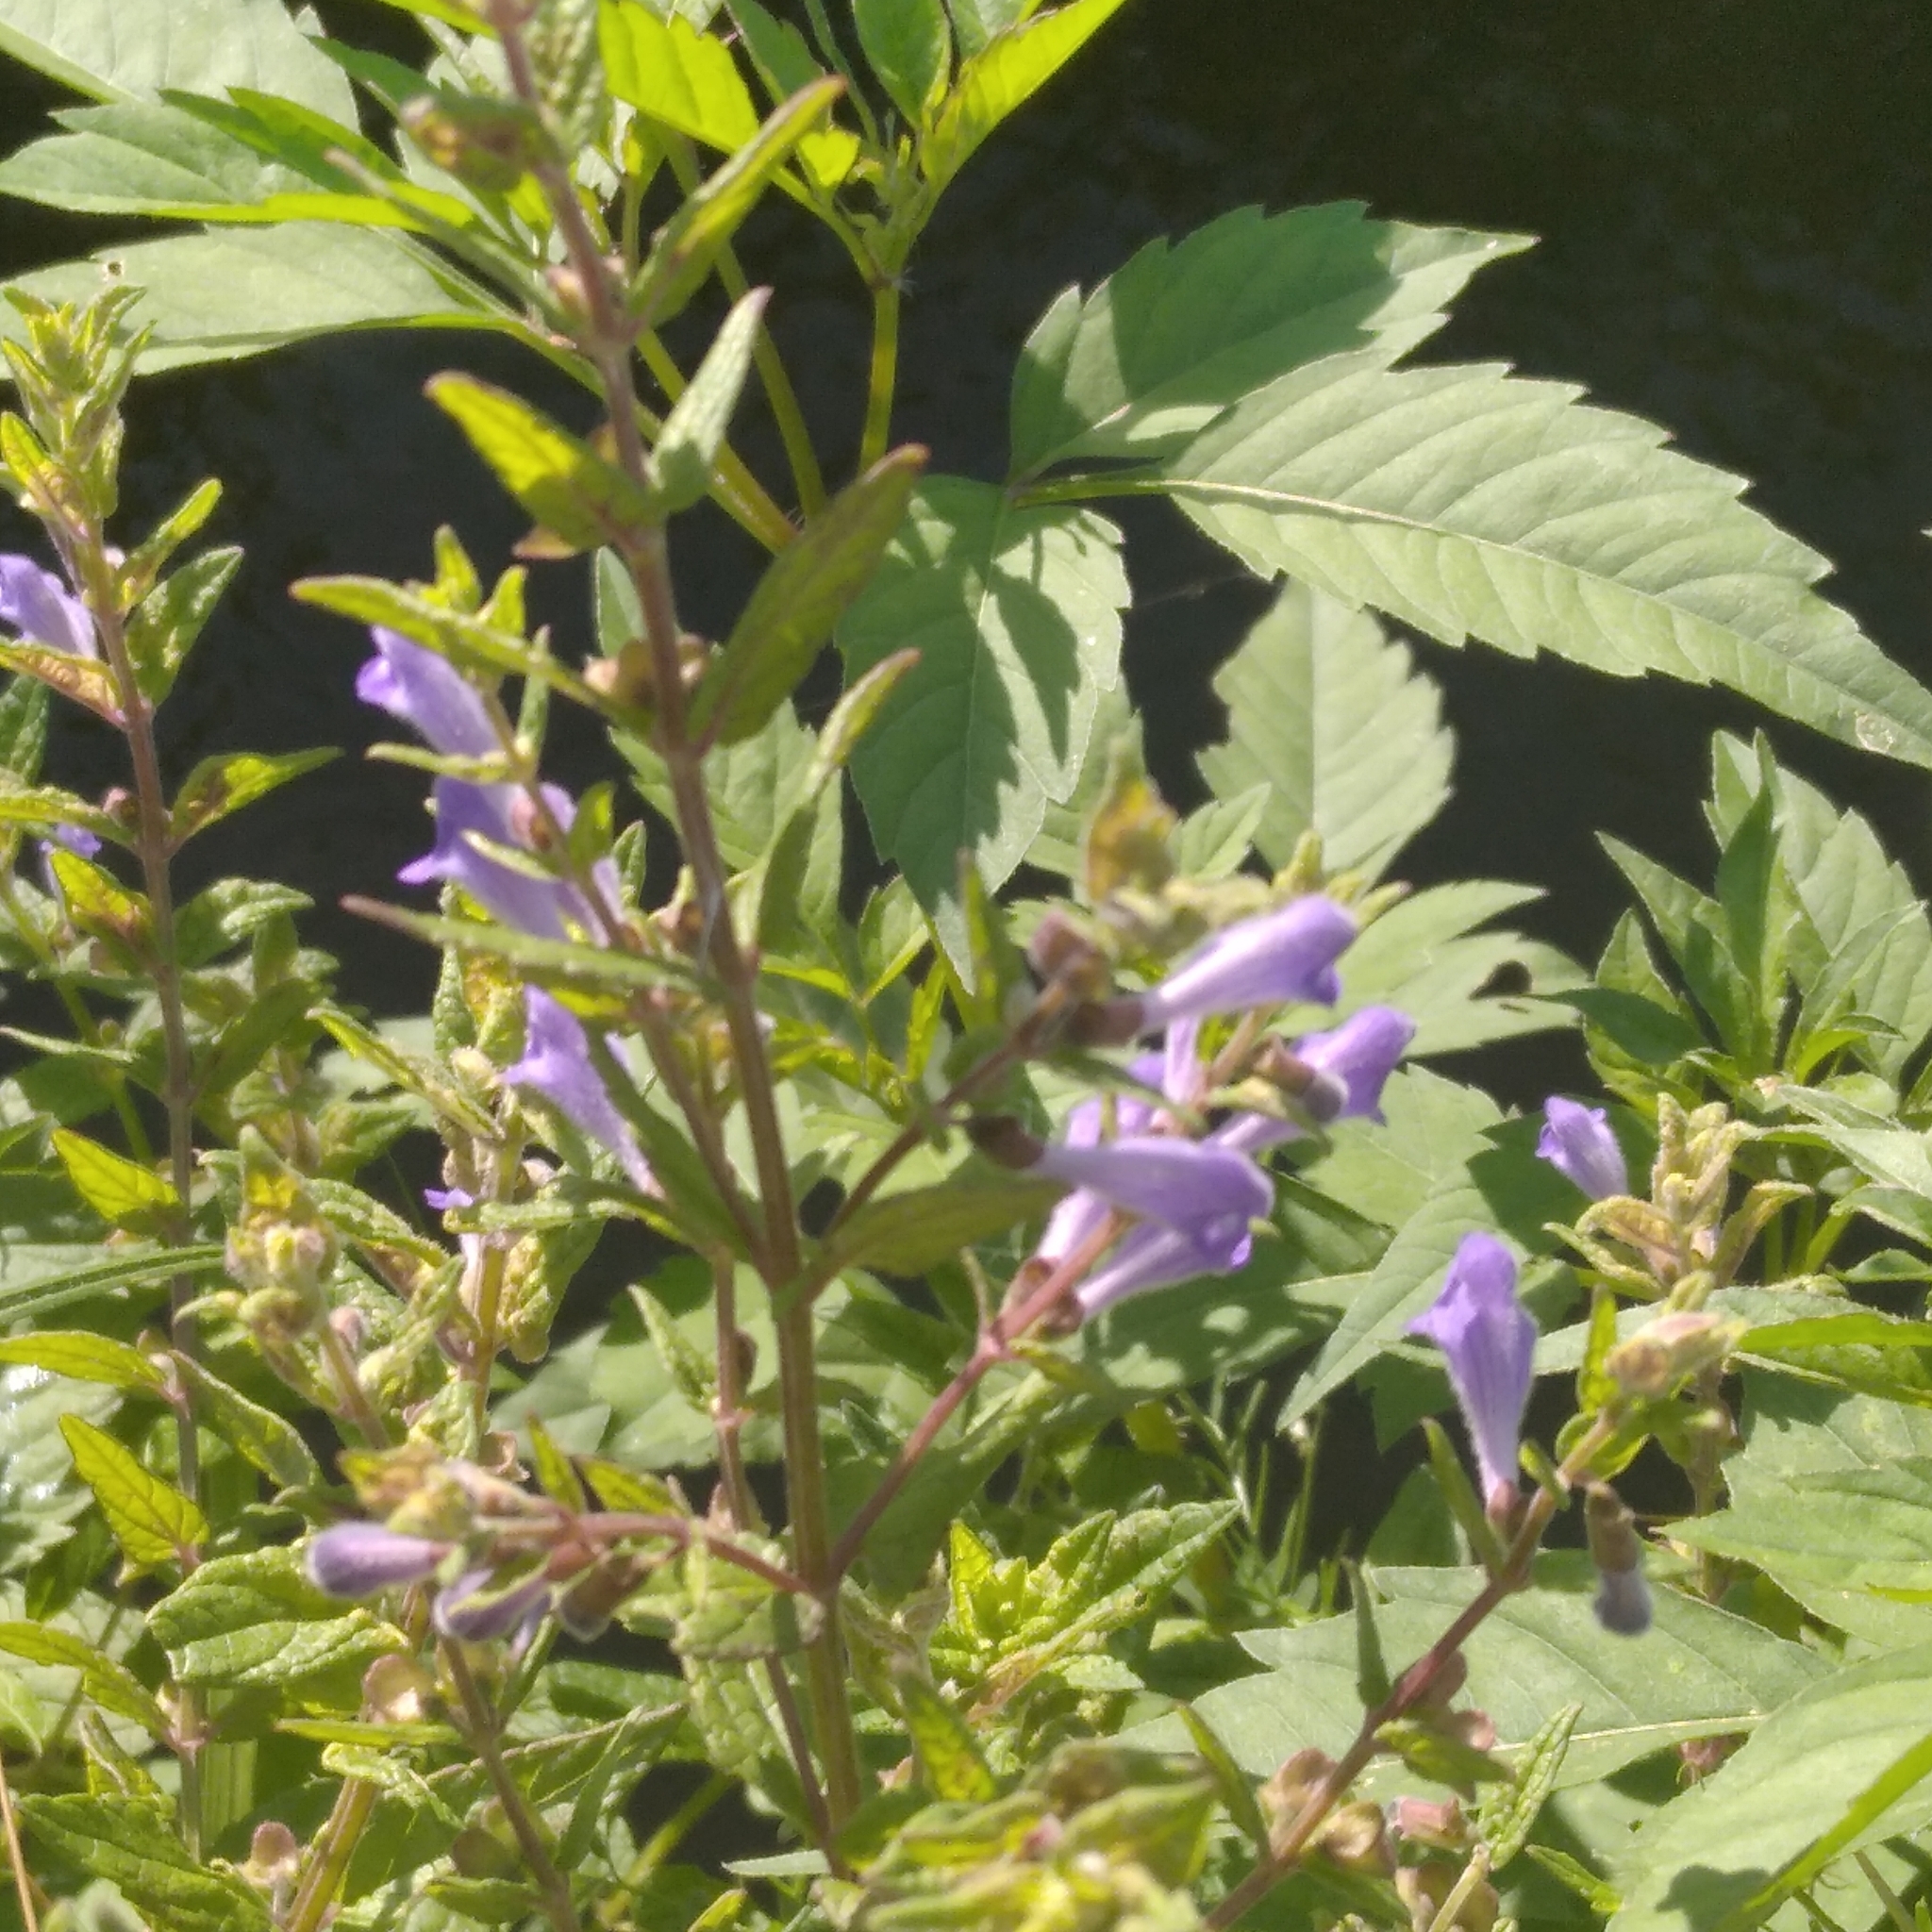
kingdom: Plantae
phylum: Tracheophyta
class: Magnoliopsida
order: Lamiales
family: Lamiaceae
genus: Scutellaria
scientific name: Scutellaria galericulata
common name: Skullcap
